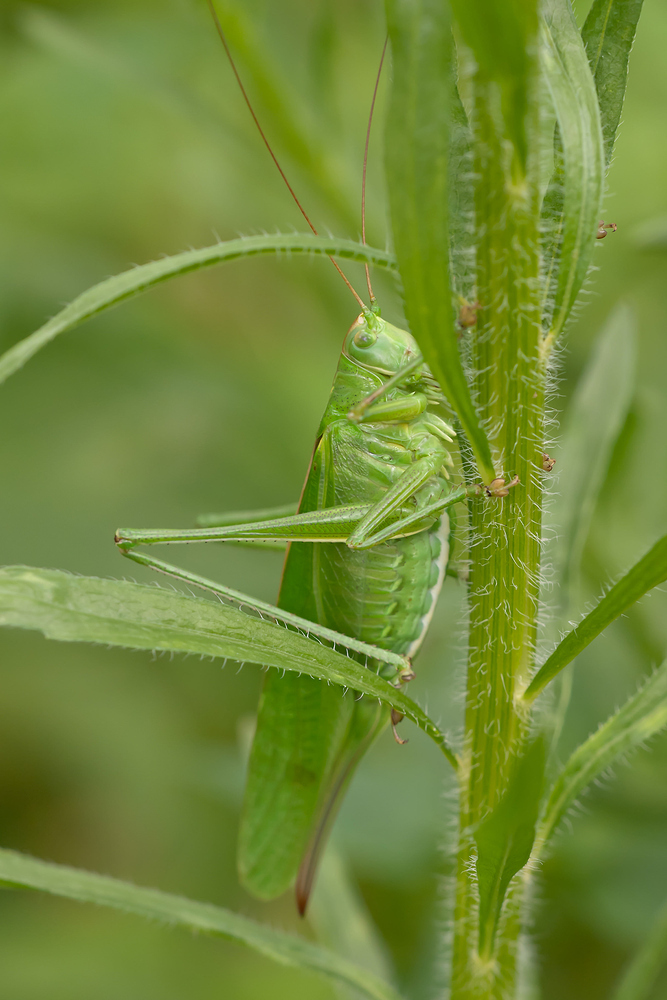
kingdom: Animalia
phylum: Arthropoda
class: Insecta
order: Orthoptera
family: Tettigoniidae
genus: Tettigonia
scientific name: Tettigonia viridissima
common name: Great green bush-cricket
